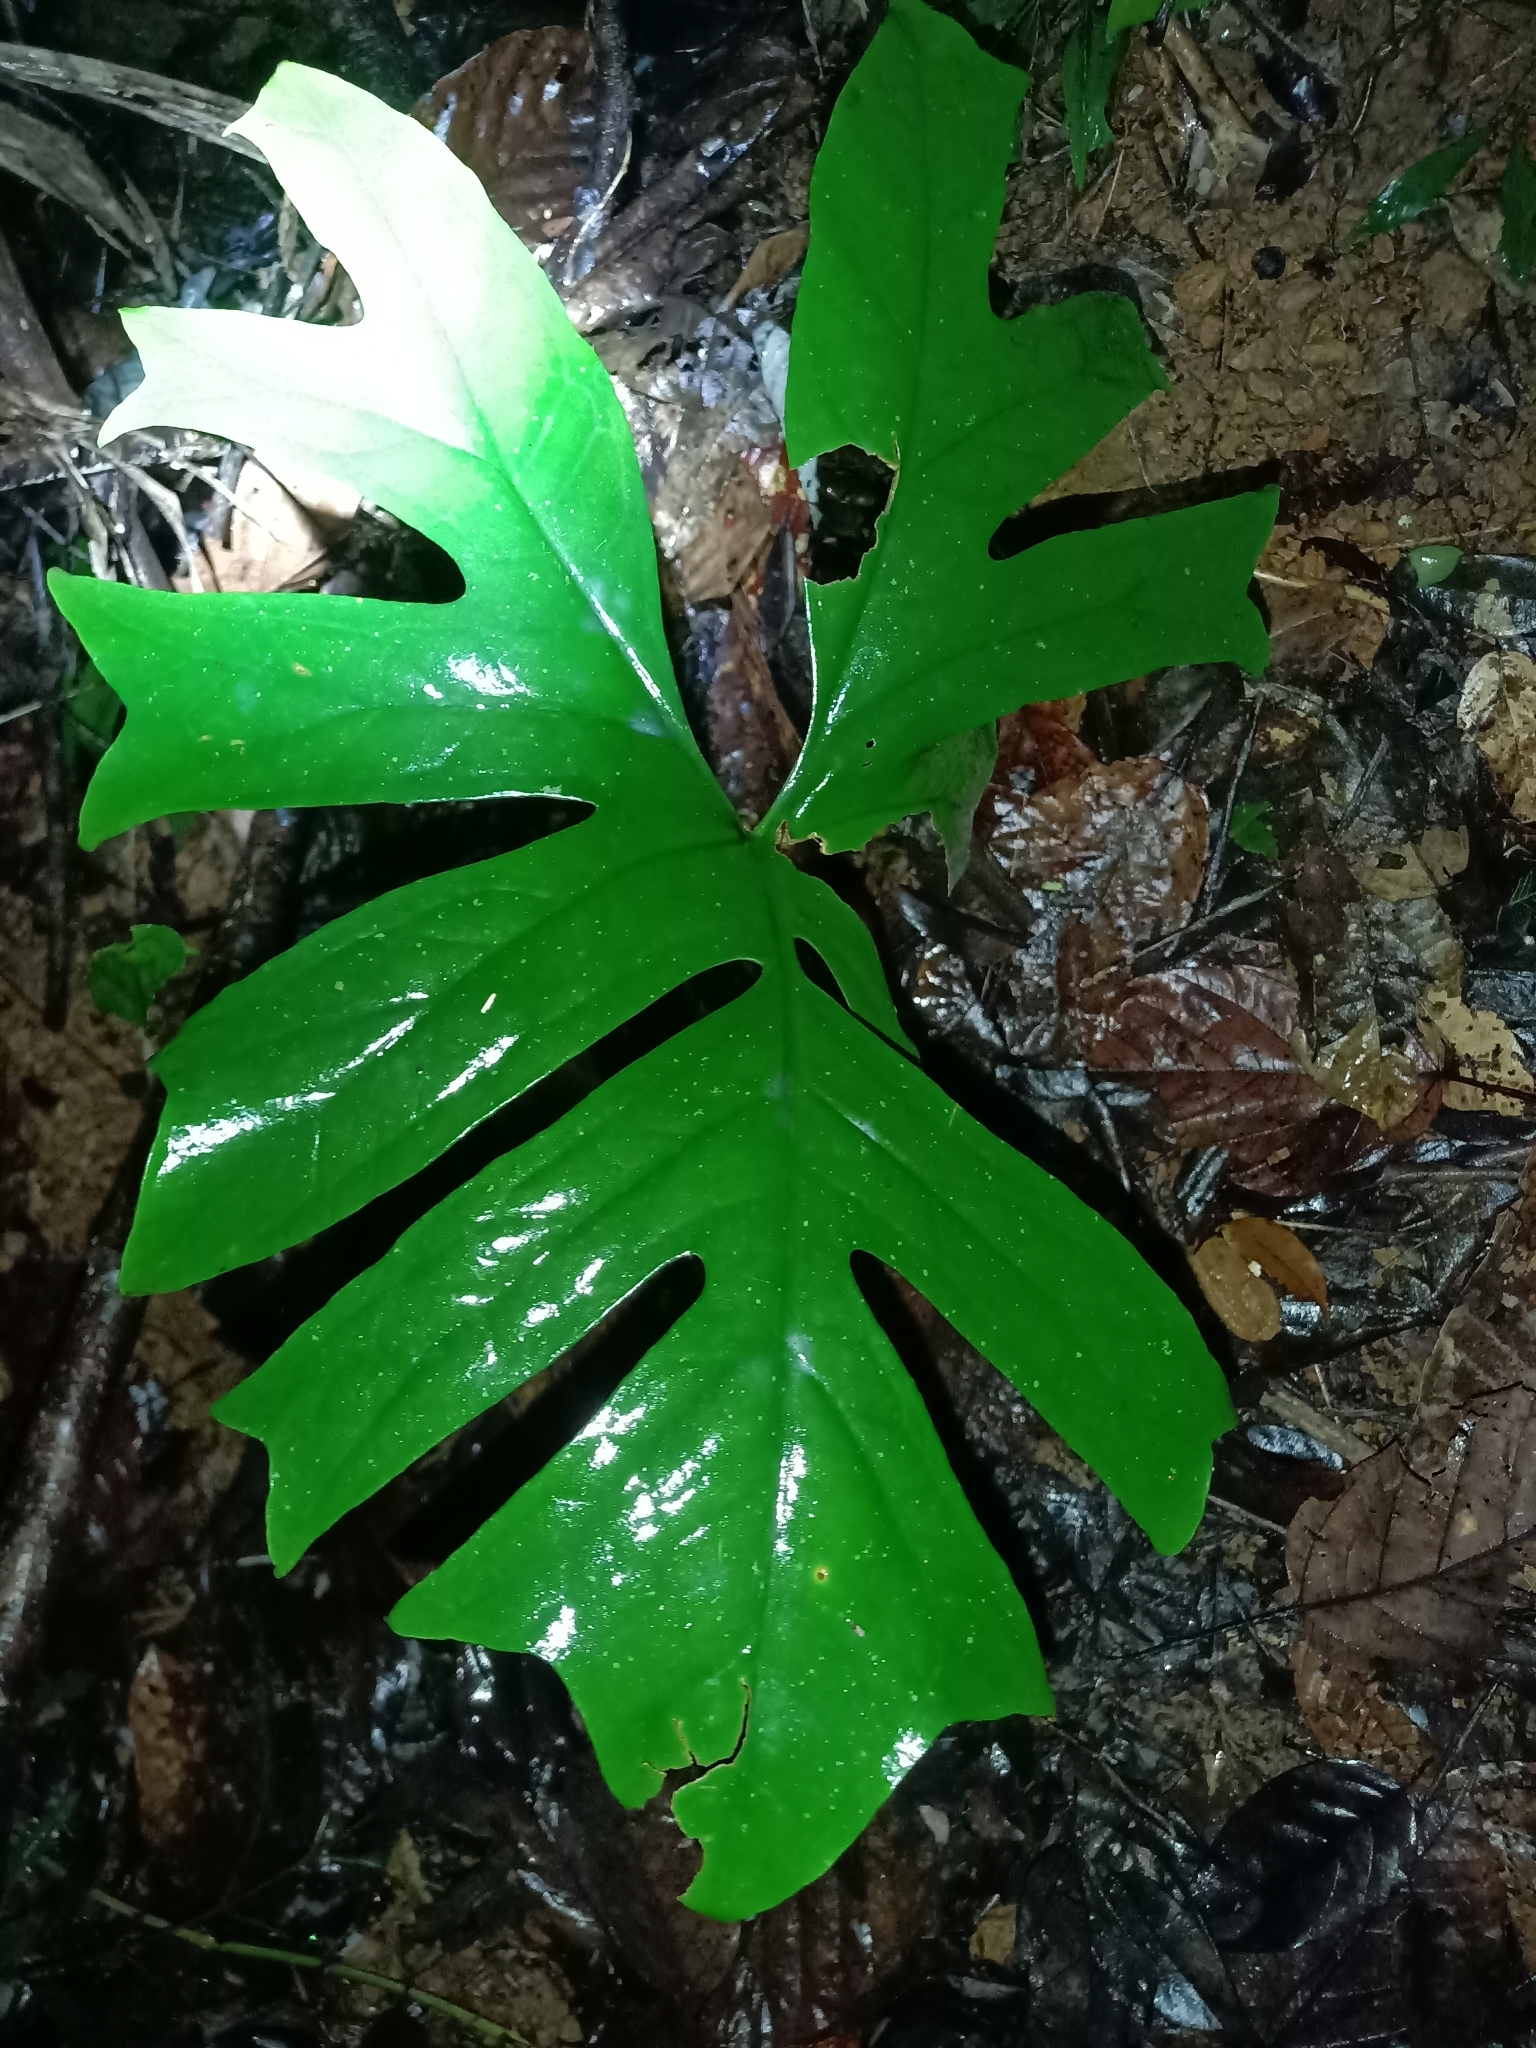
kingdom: Plantae
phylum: Tracheophyta
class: Liliopsida
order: Alismatales
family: Araceae
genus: Anaphyllopsis
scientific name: Anaphyllopsis americana
